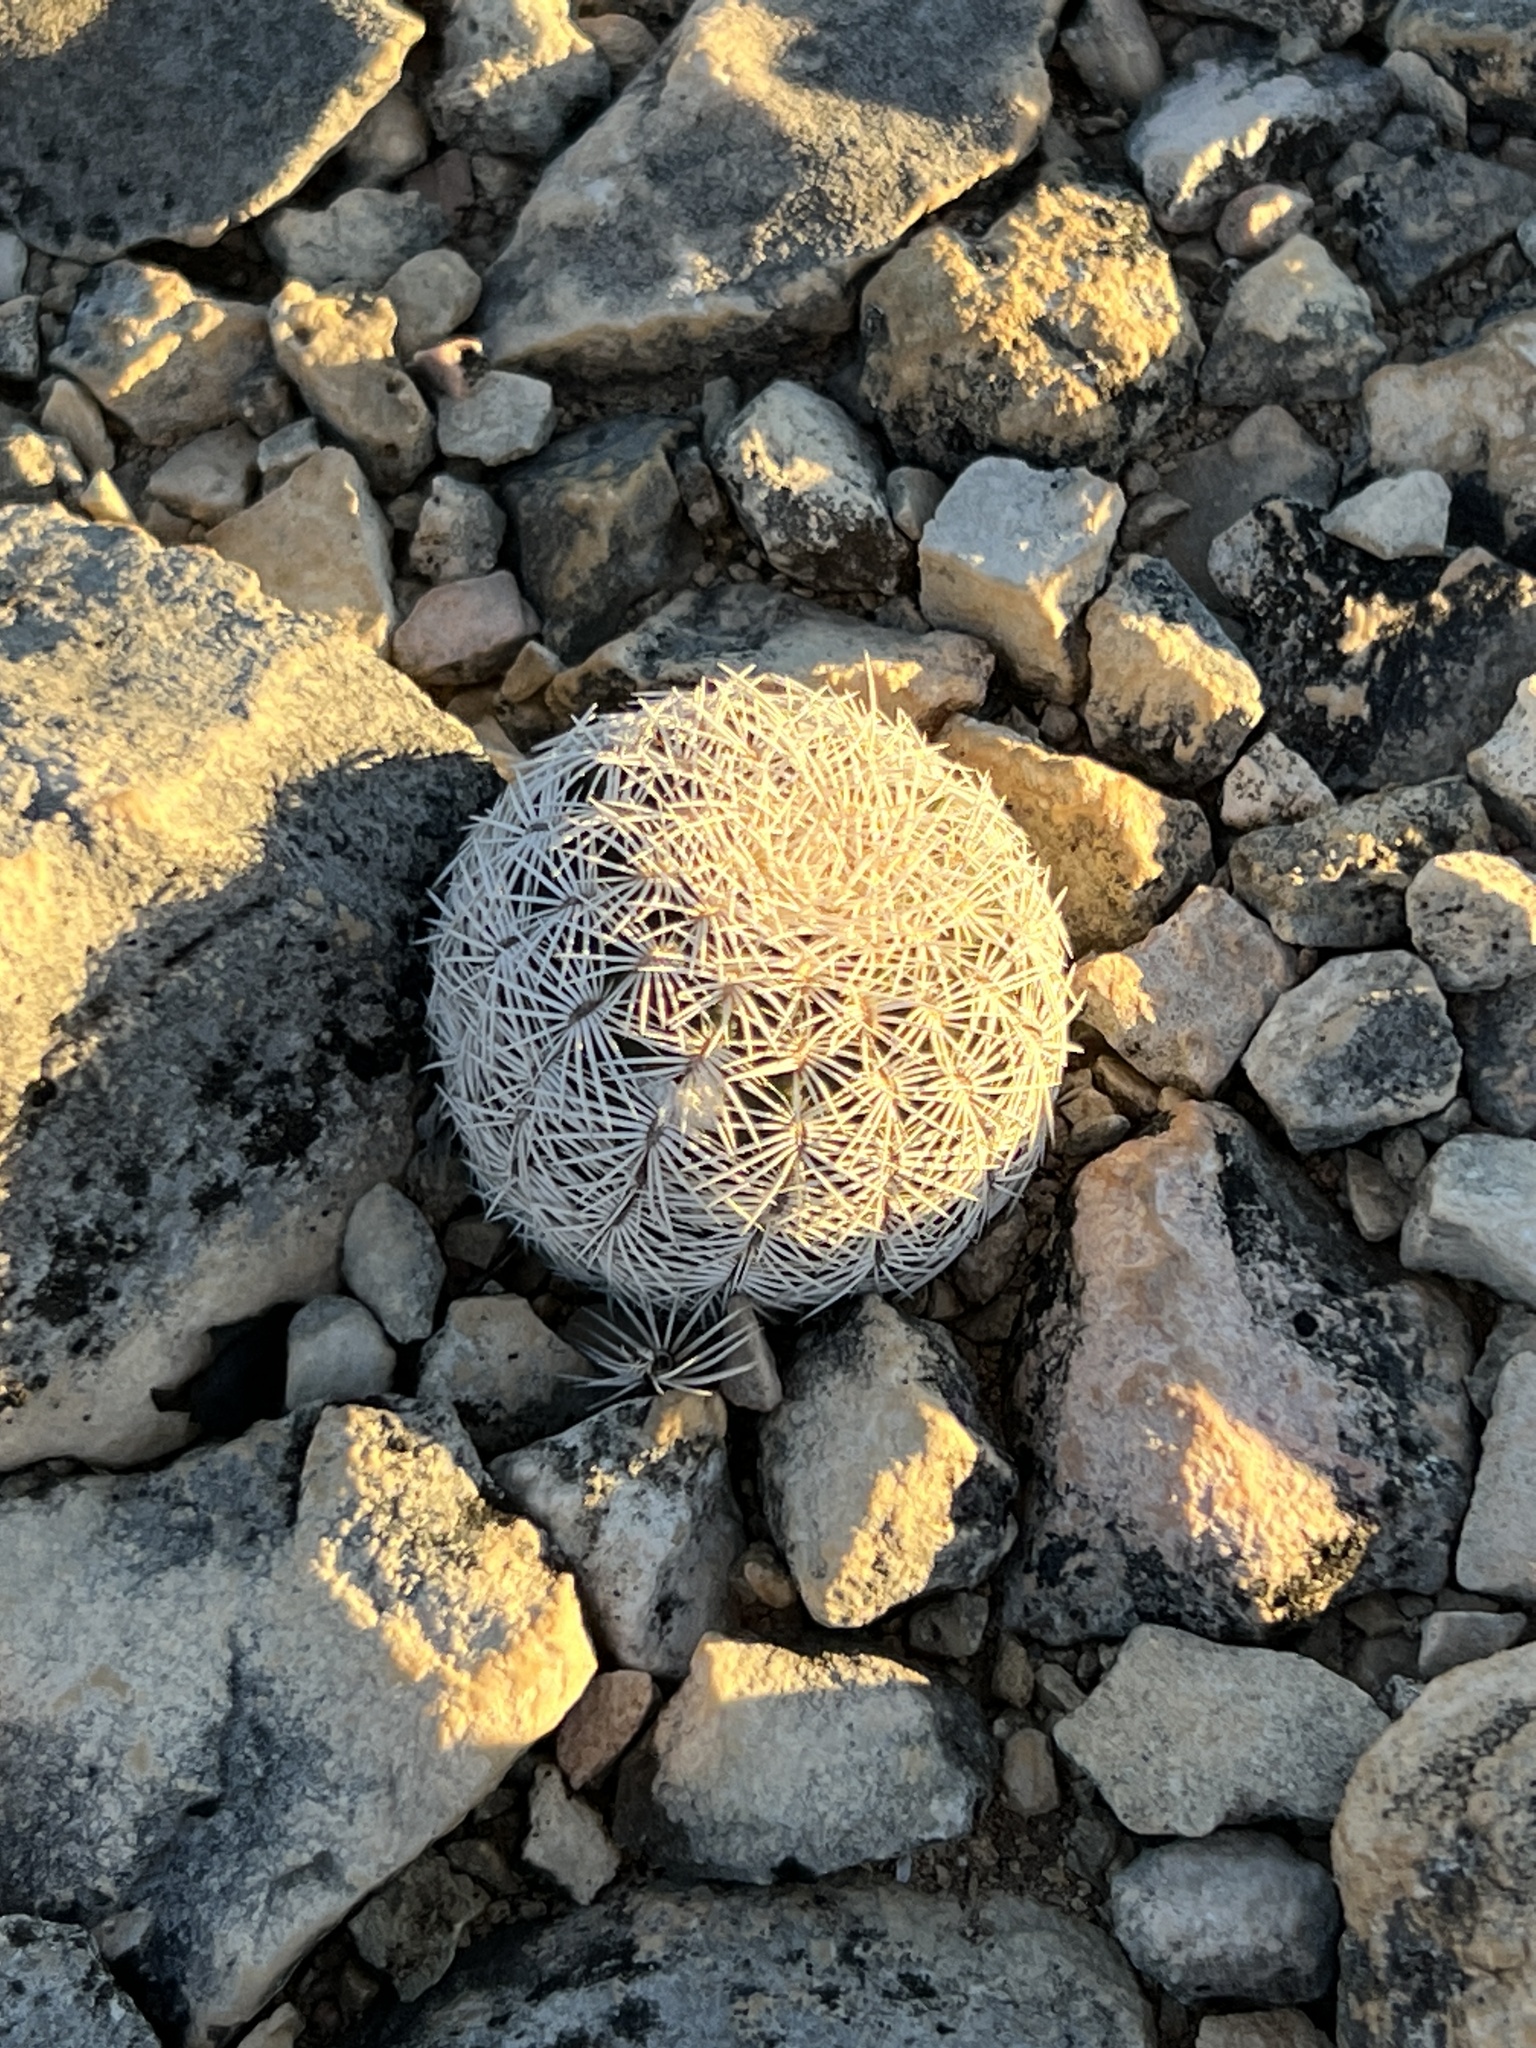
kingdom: Plantae
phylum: Tracheophyta
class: Magnoliopsida
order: Caryophyllales
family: Cactaceae
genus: Echinocereus
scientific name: Echinocereus reichenbachii
